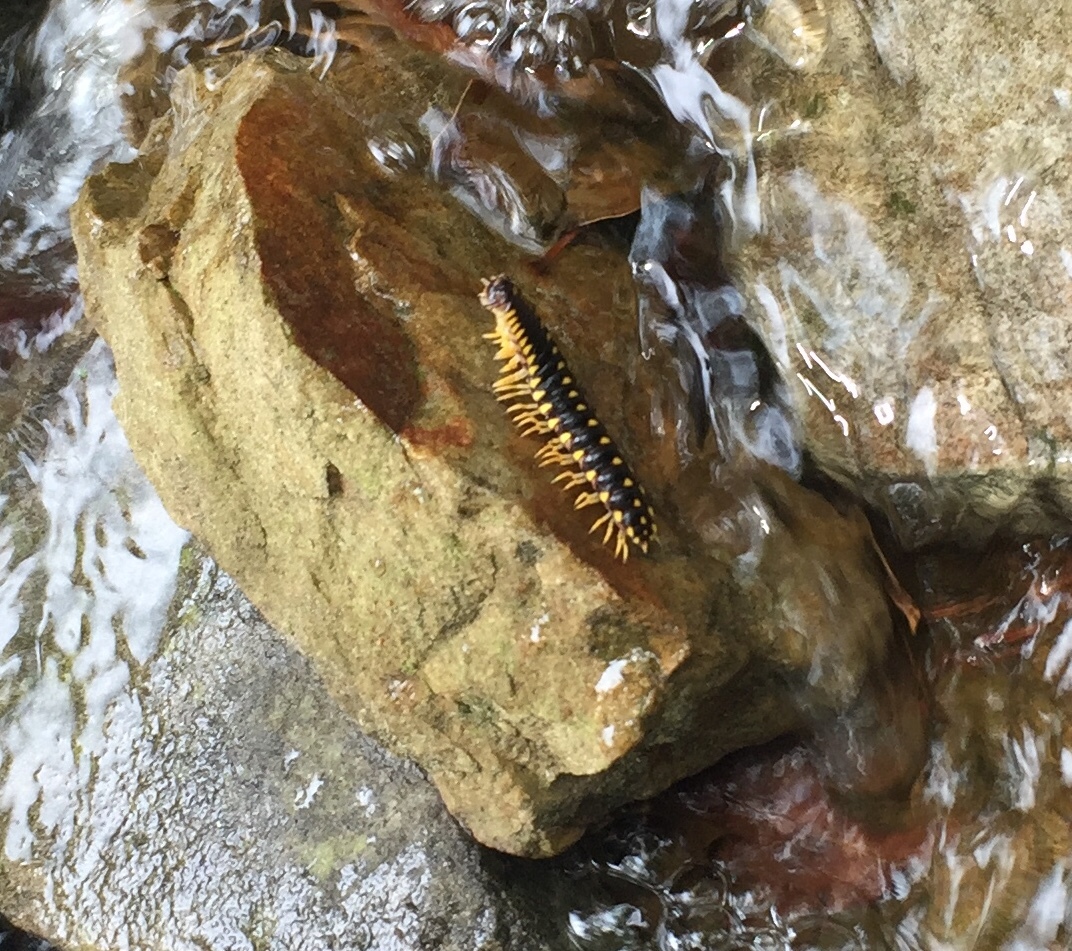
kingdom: Animalia
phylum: Arthropoda
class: Diplopoda
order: Polydesmida
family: Xystodesmidae
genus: Cherokia
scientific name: Cherokia georgiana
